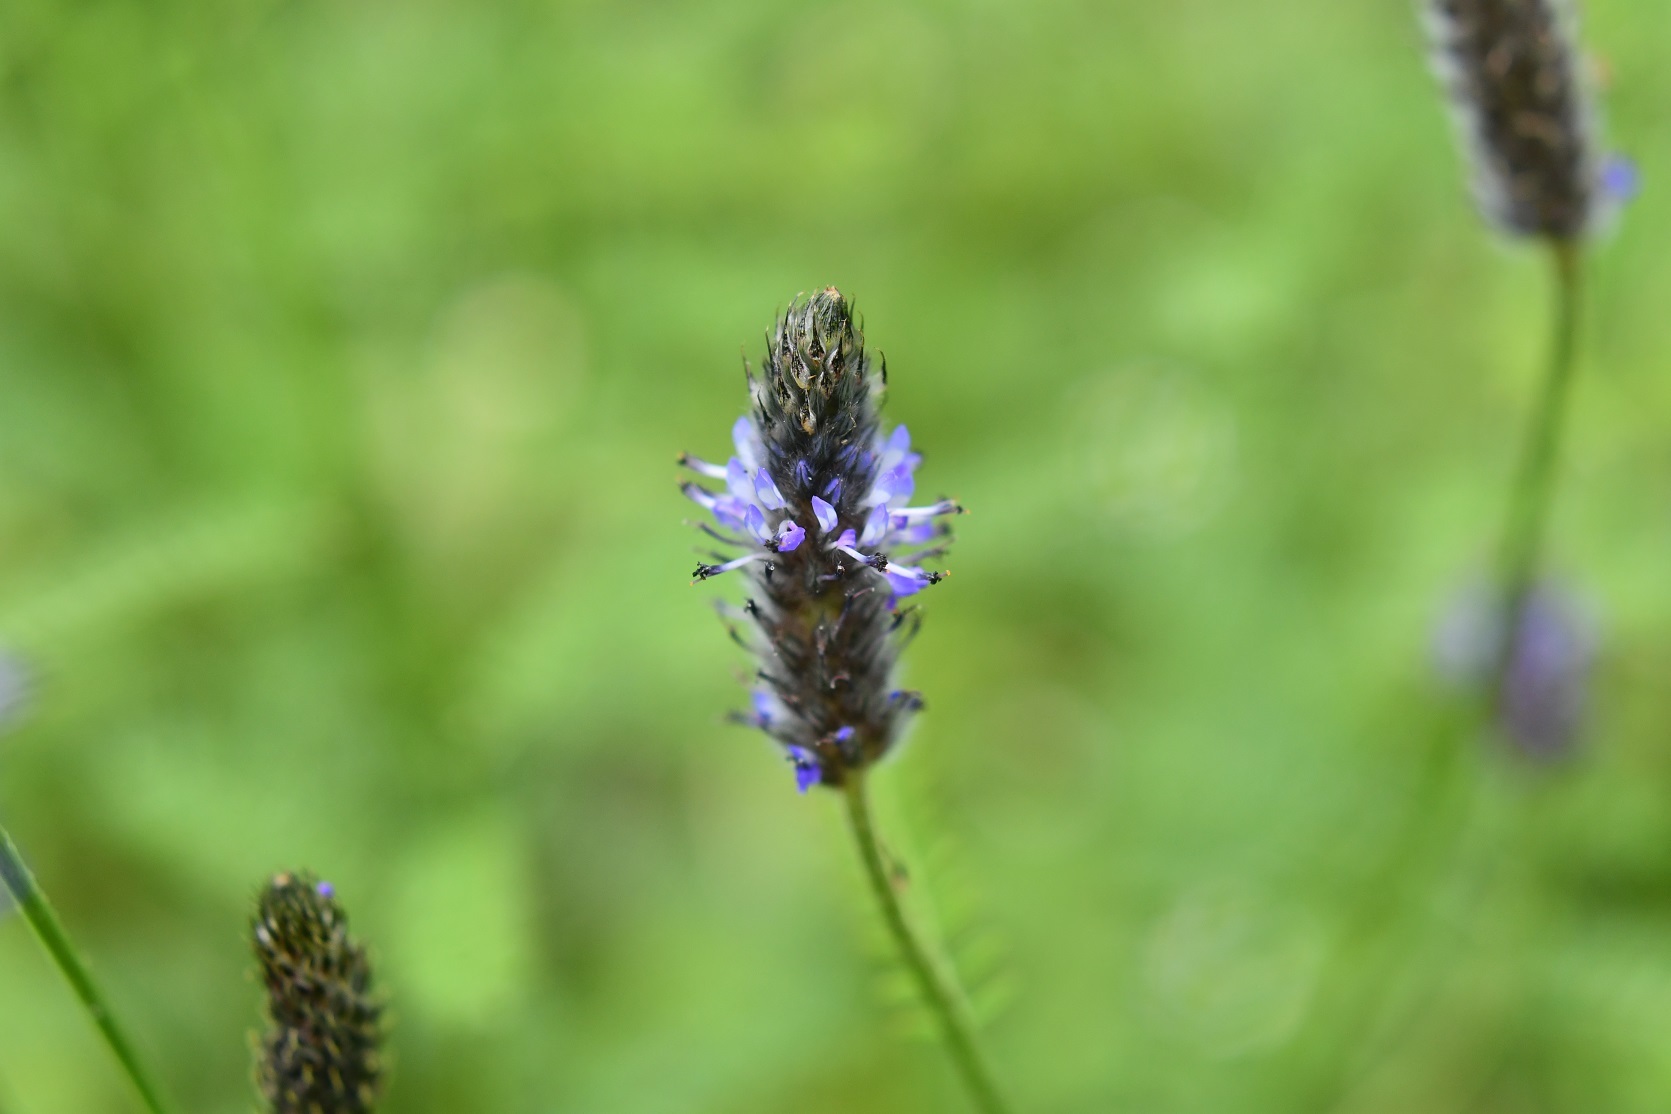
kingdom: Plantae
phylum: Tracheophyta
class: Magnoliopsida
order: Fabales
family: Fabaceae
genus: Dalea
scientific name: Dalea leporina
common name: Foxtail dalea
